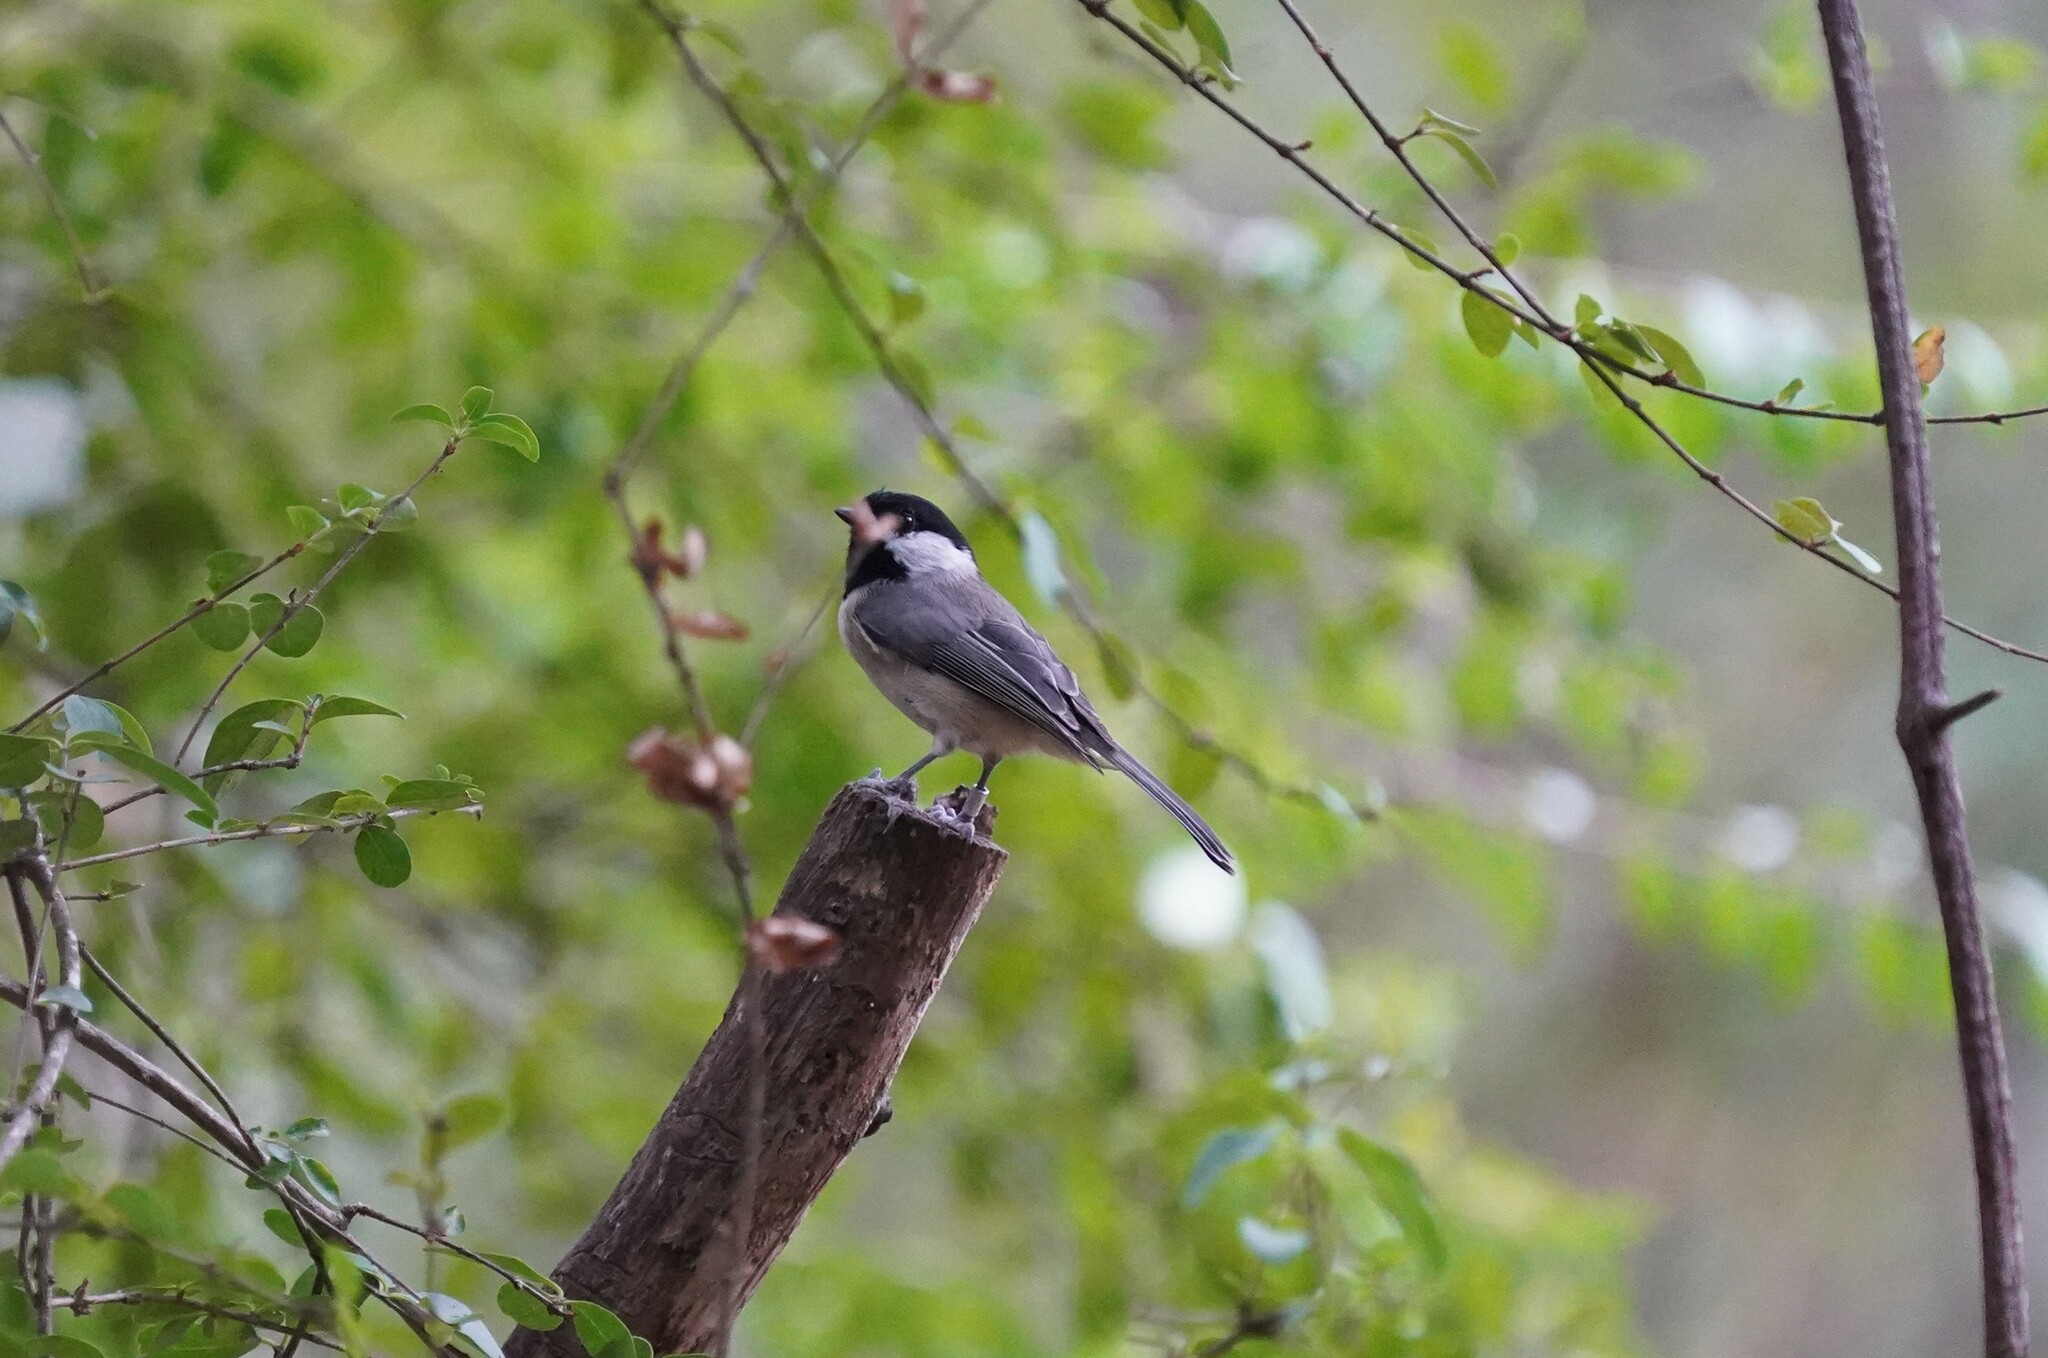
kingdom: Animalia
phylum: Chordata
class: Aves
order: Passeriformes
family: Paridae
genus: Poecile
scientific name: Poecile carolinensis
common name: Carolina chickadee
